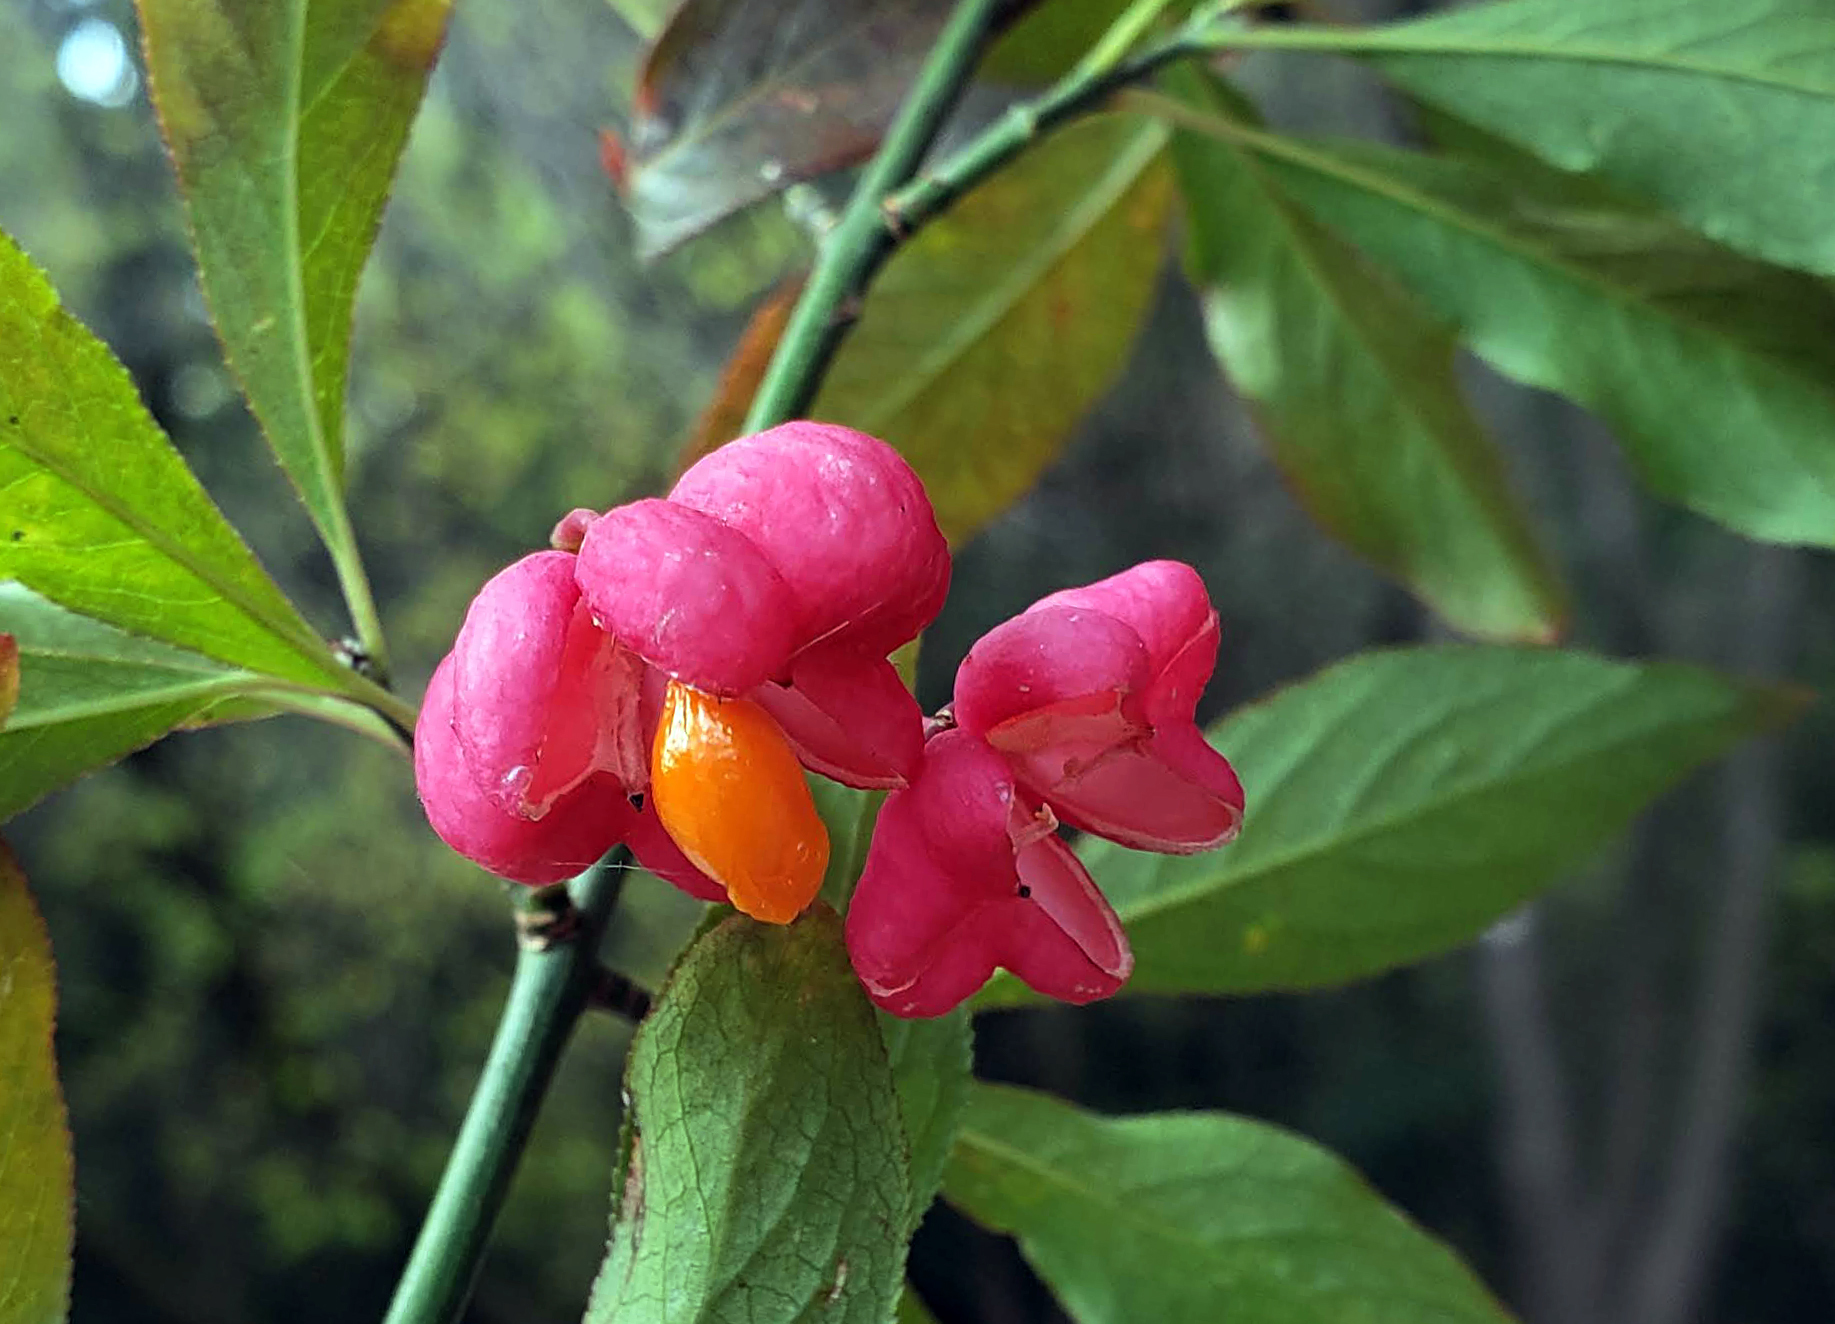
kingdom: Plantae
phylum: Tracheophyta
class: Magnoliopsida
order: Celastrales
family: Celastraceae
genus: Euonymus
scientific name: Euonymus europaeus
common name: Spindle
